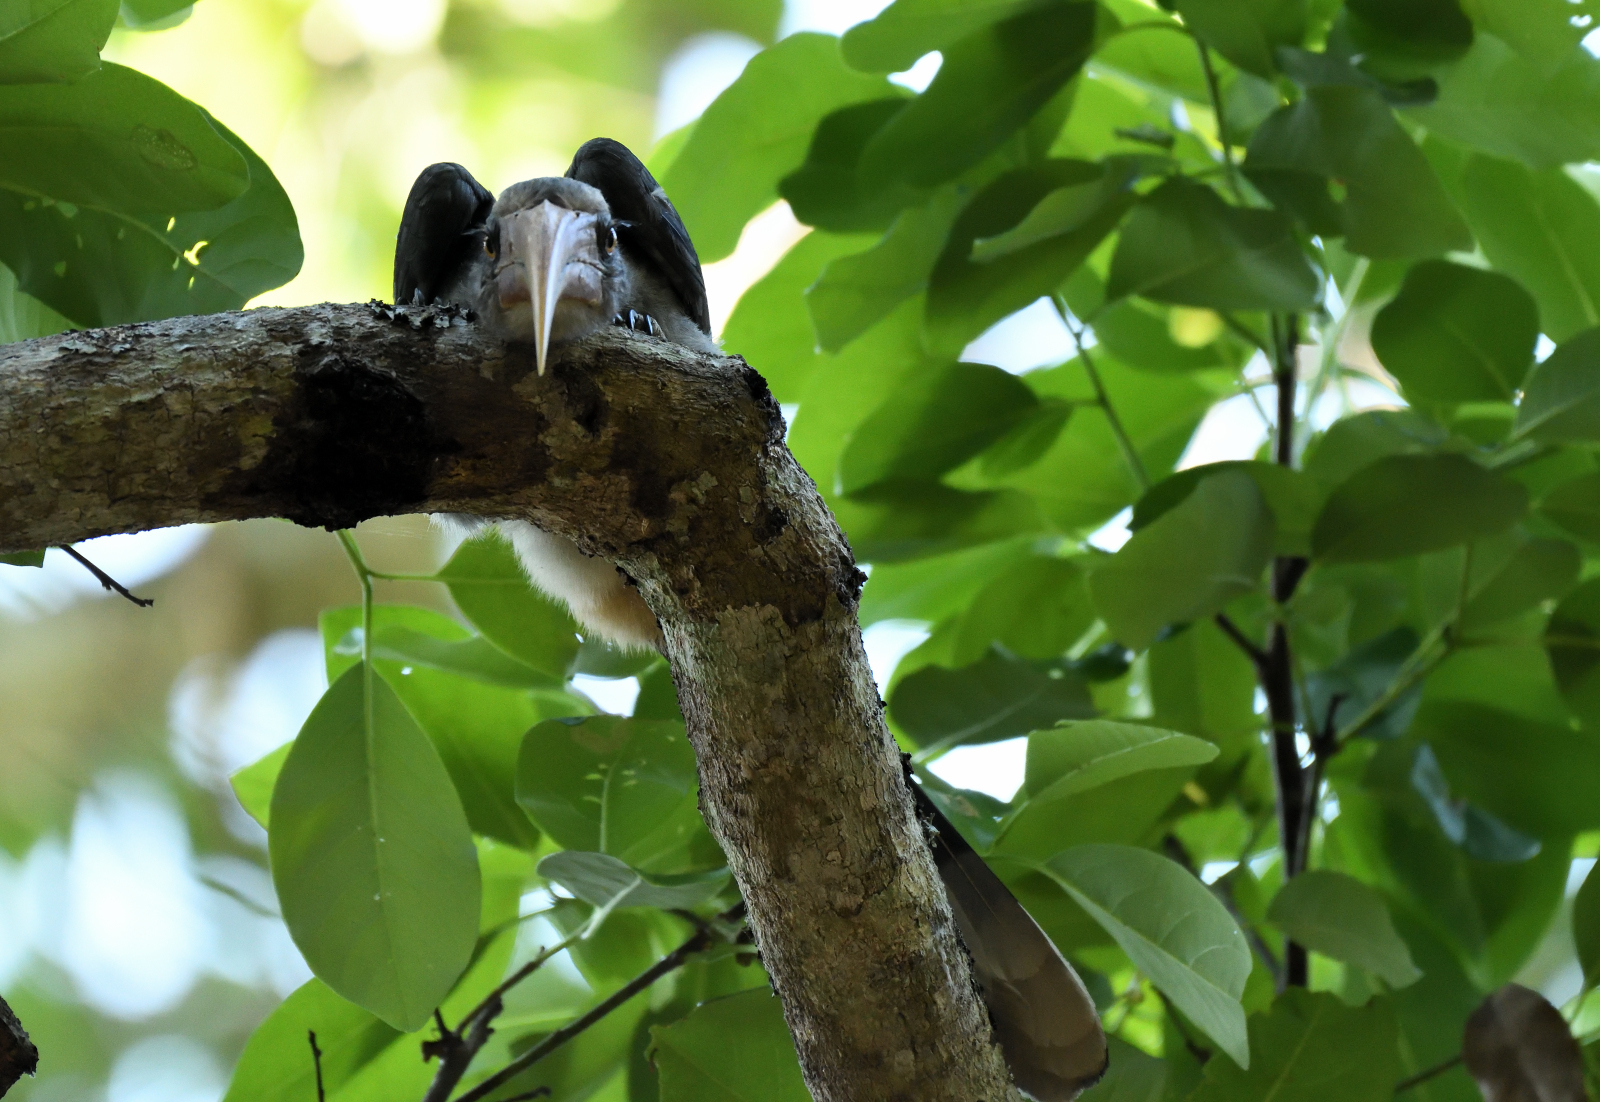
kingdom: Animalia
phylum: Chordata
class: Aves
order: Bucerotiformes
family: Bucerotidae
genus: Ocyceros
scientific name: Ocyceros griseus
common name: Malabar grey hornbill
